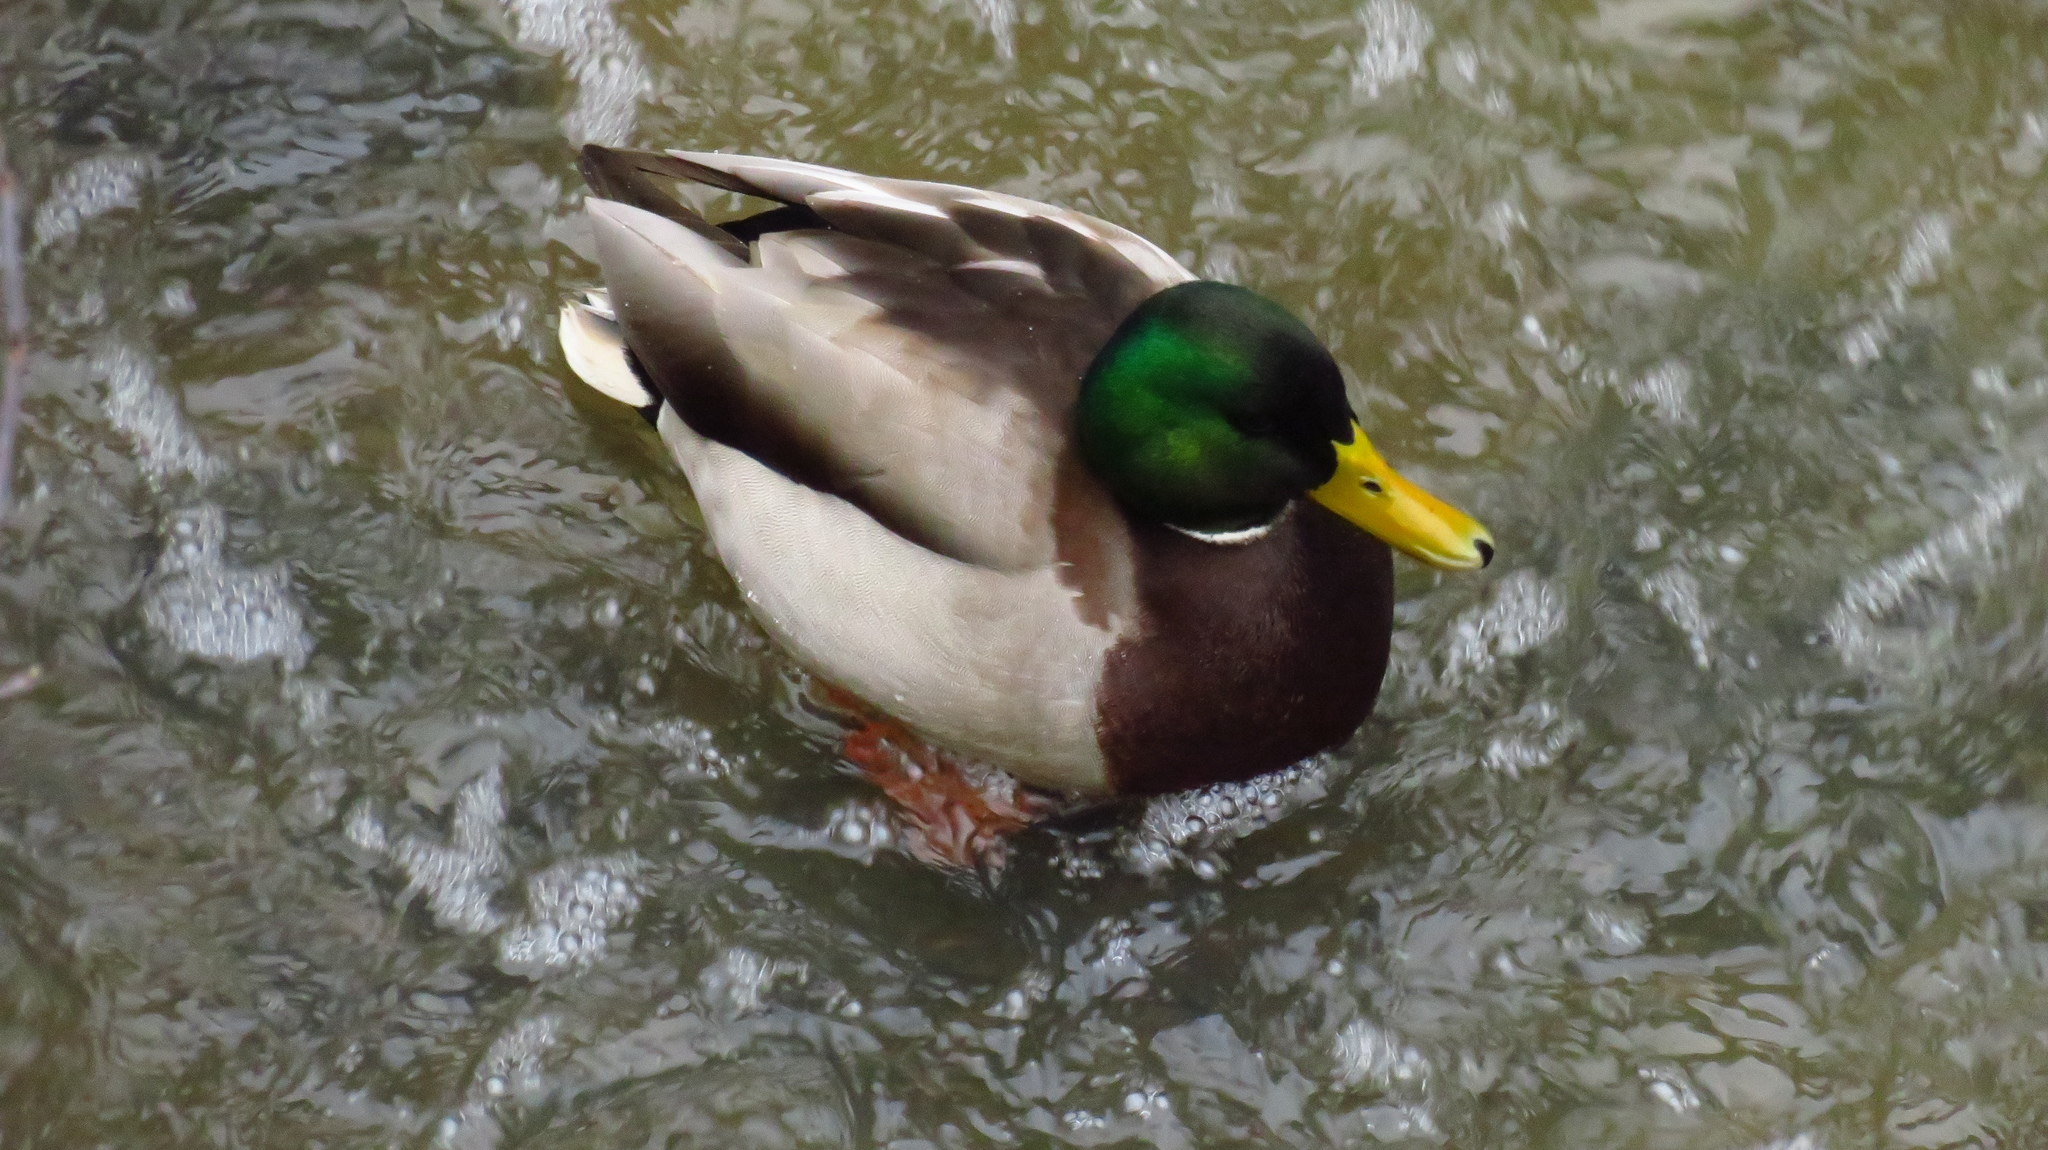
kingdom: Animalia
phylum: Chordata
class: Aves
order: Anseriformes
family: Anatidae
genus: Anas
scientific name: Anas platyrhynchos
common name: Mallard
